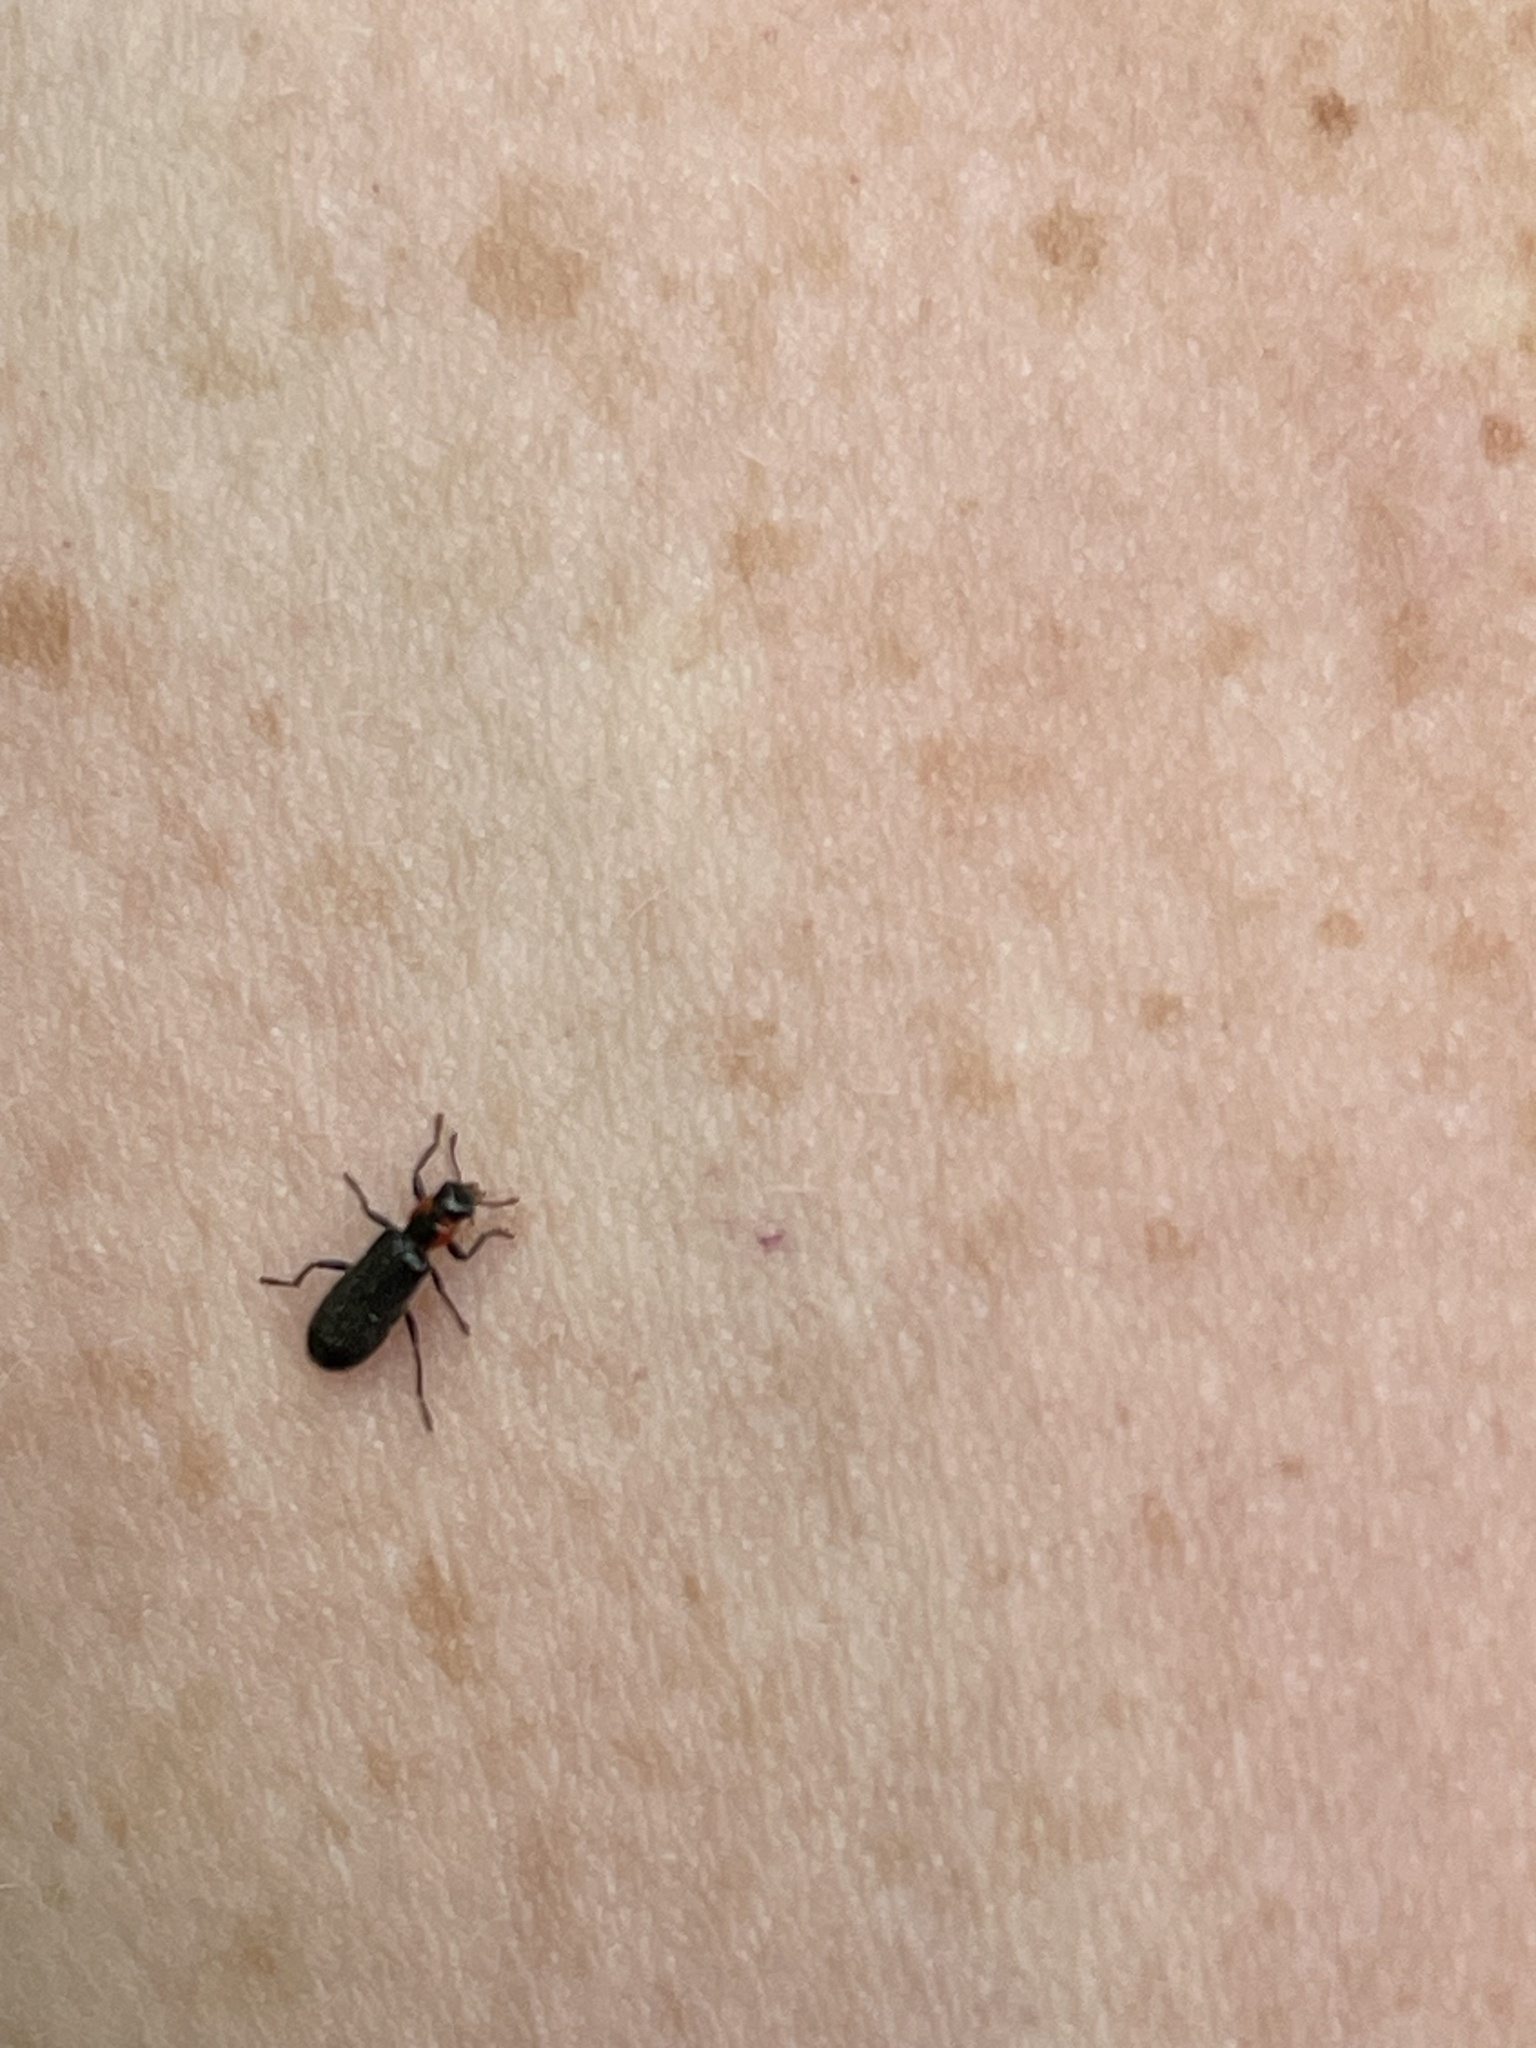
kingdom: Animalia
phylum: Arthropoda
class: Insecta
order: Coleoptera
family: Cleridae
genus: Placopterus
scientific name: Placopterus thoracicus
